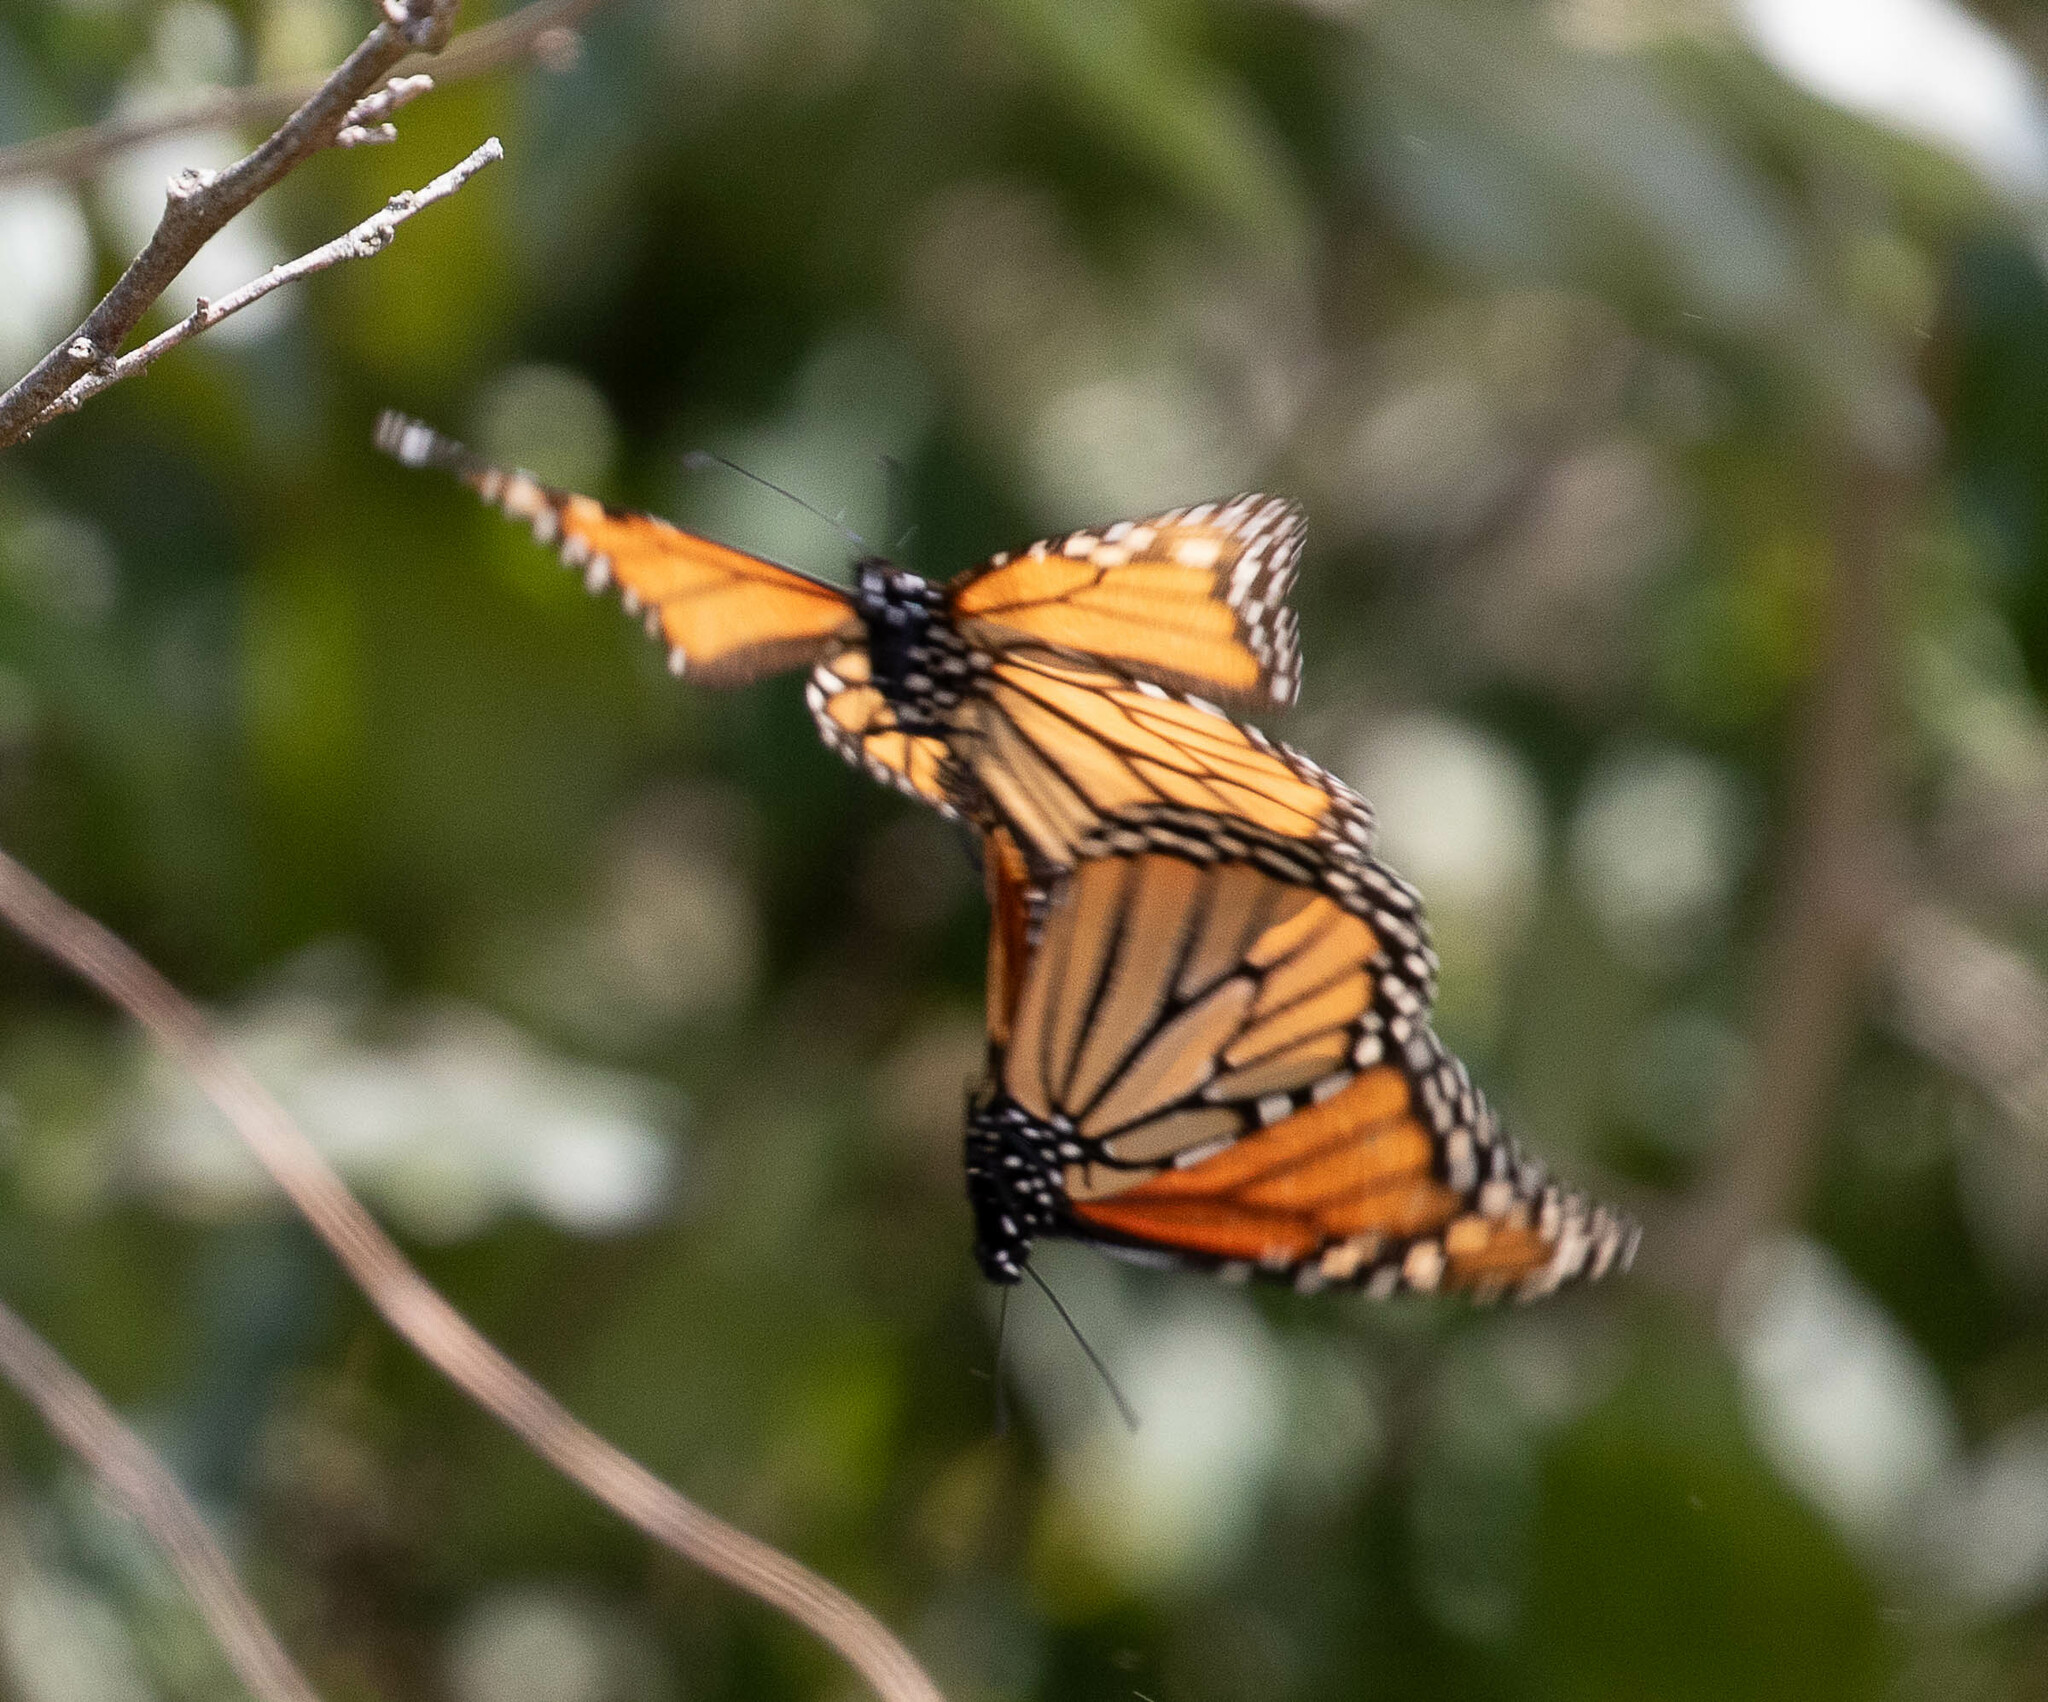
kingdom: Animalia
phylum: Arthropoda
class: Insecta
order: Lepidoptera
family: Nymphalidae
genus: Danaus
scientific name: Danaus plexippus
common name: Monarch
